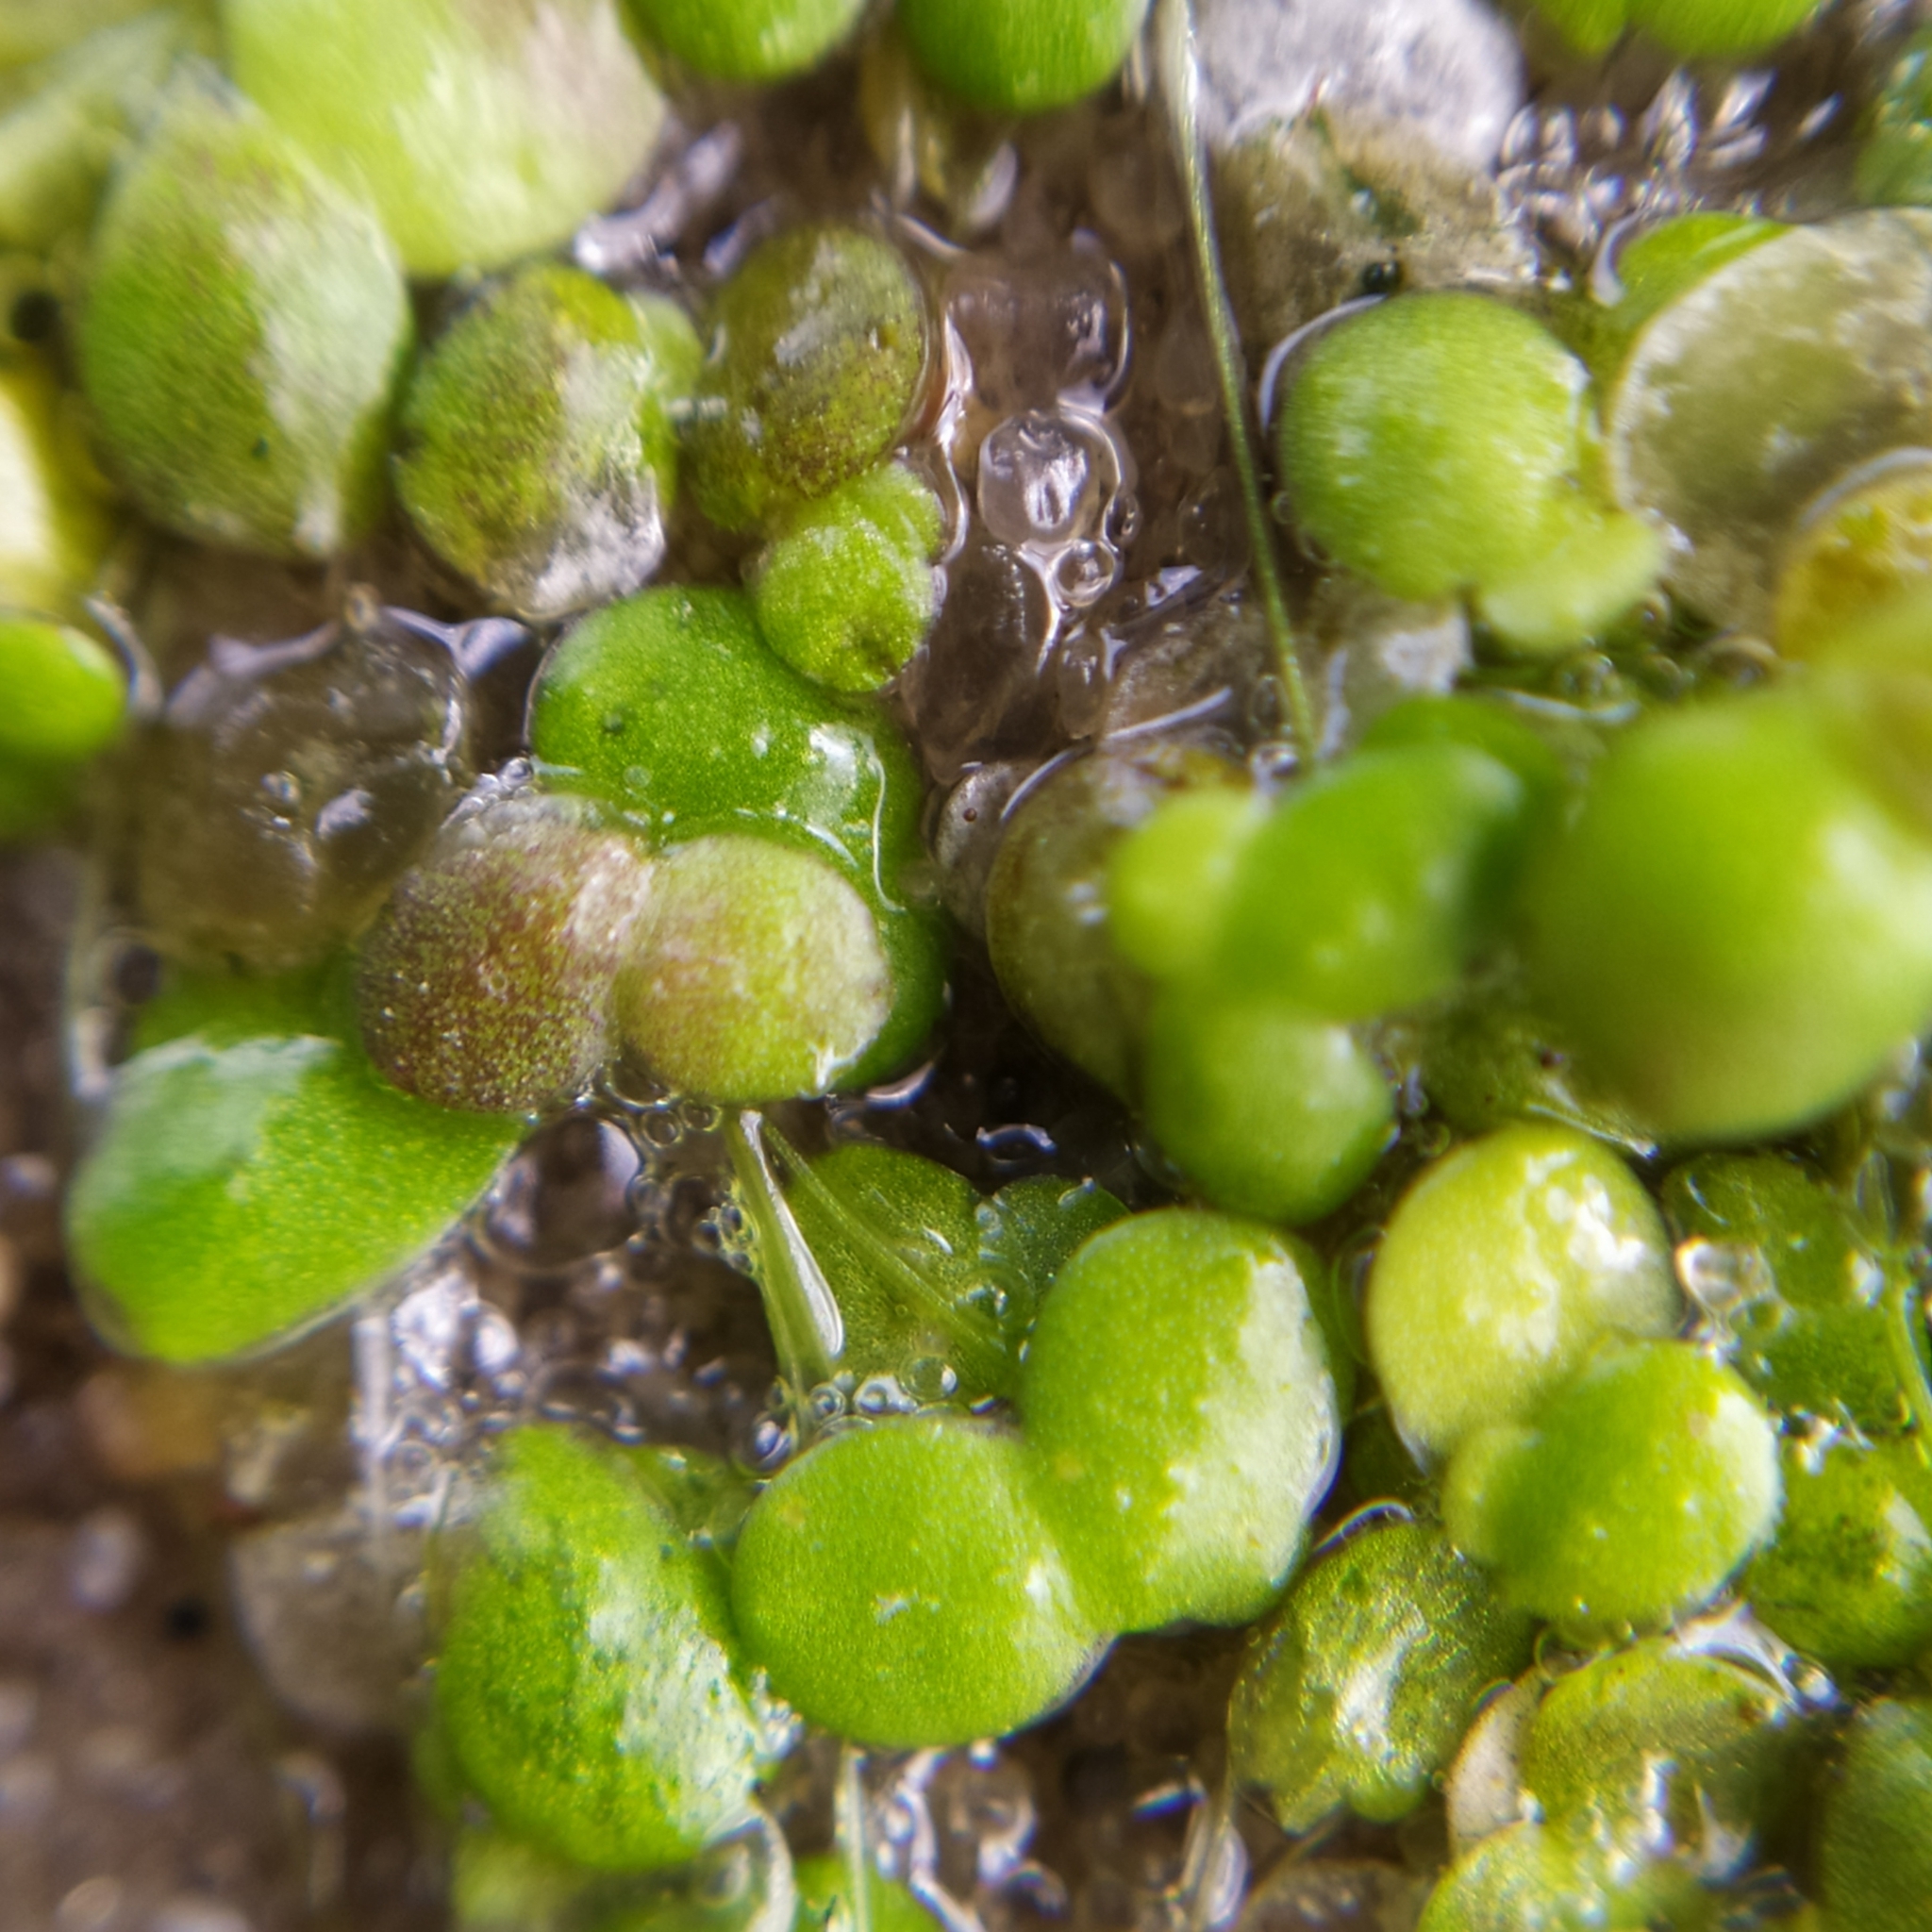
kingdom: Plantae
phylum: Tracheophyta
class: Liliopsida
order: Alismatales
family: Araceae
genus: Lemna
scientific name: Lemna gibba
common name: Fat duckweed
